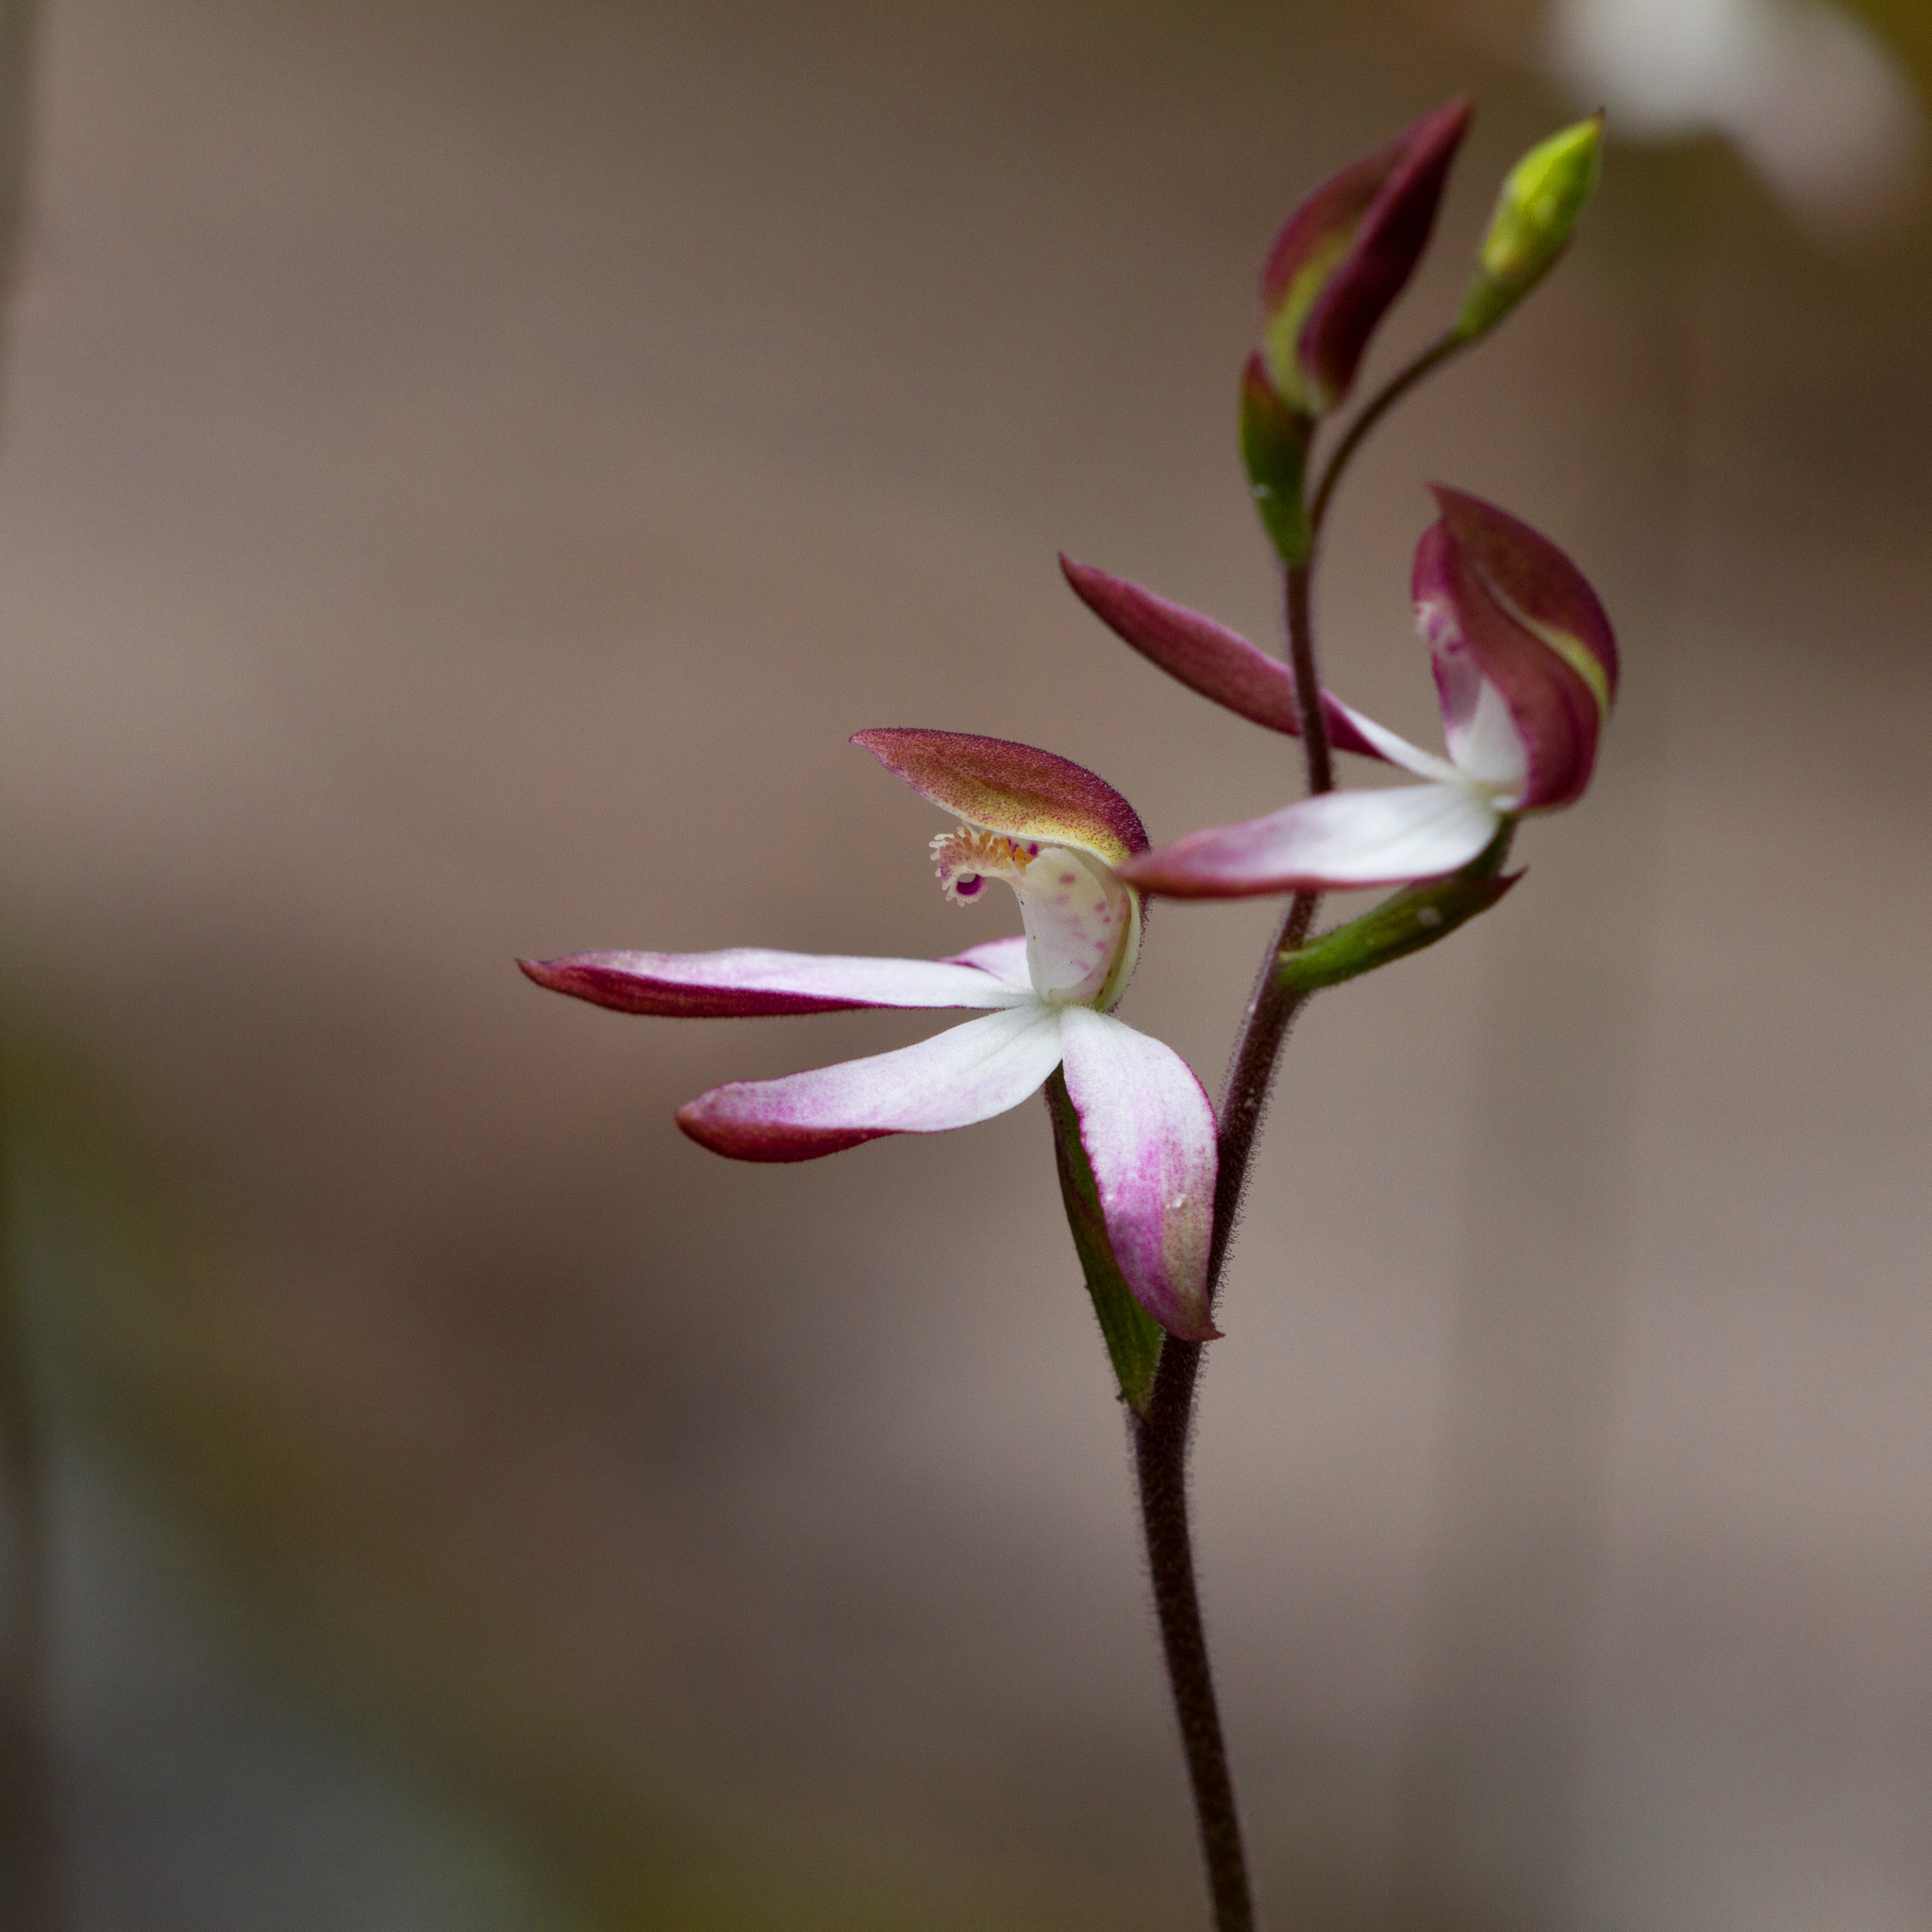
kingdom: Plantae
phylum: Tracheophyta
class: Liliopsida
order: Asparagales
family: Orchidaceae
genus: Caladenia
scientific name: Caladenia moschata
